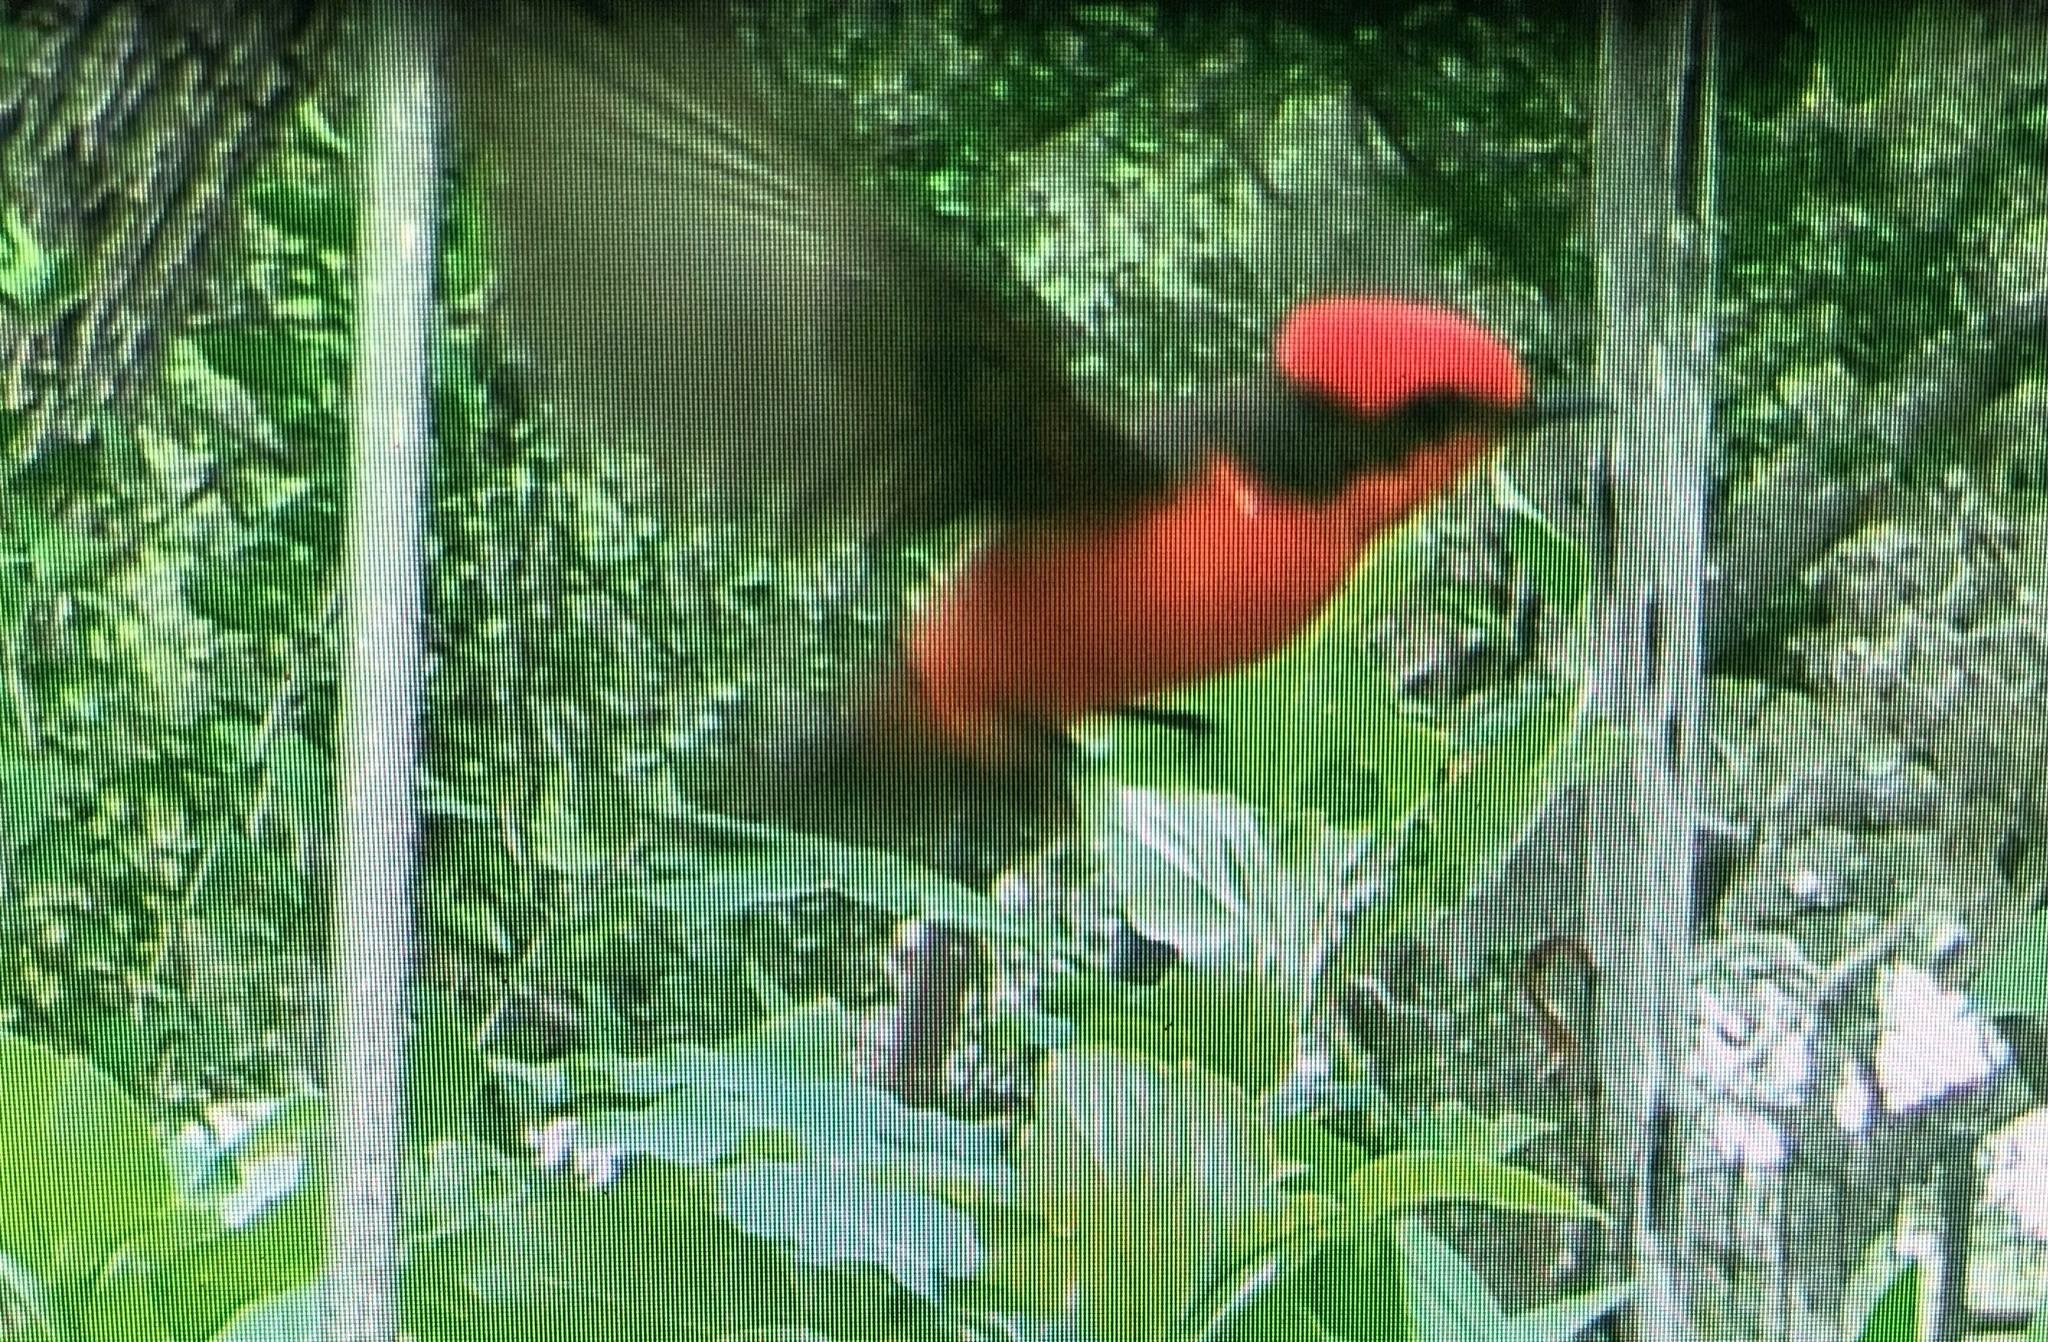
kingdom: Animalia
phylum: Chordata
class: Aves
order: Passeriformes
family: Tyrannidae
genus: Pyrocephalus
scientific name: Pyrocephalus rubinus
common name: Vermilion flycatcher
